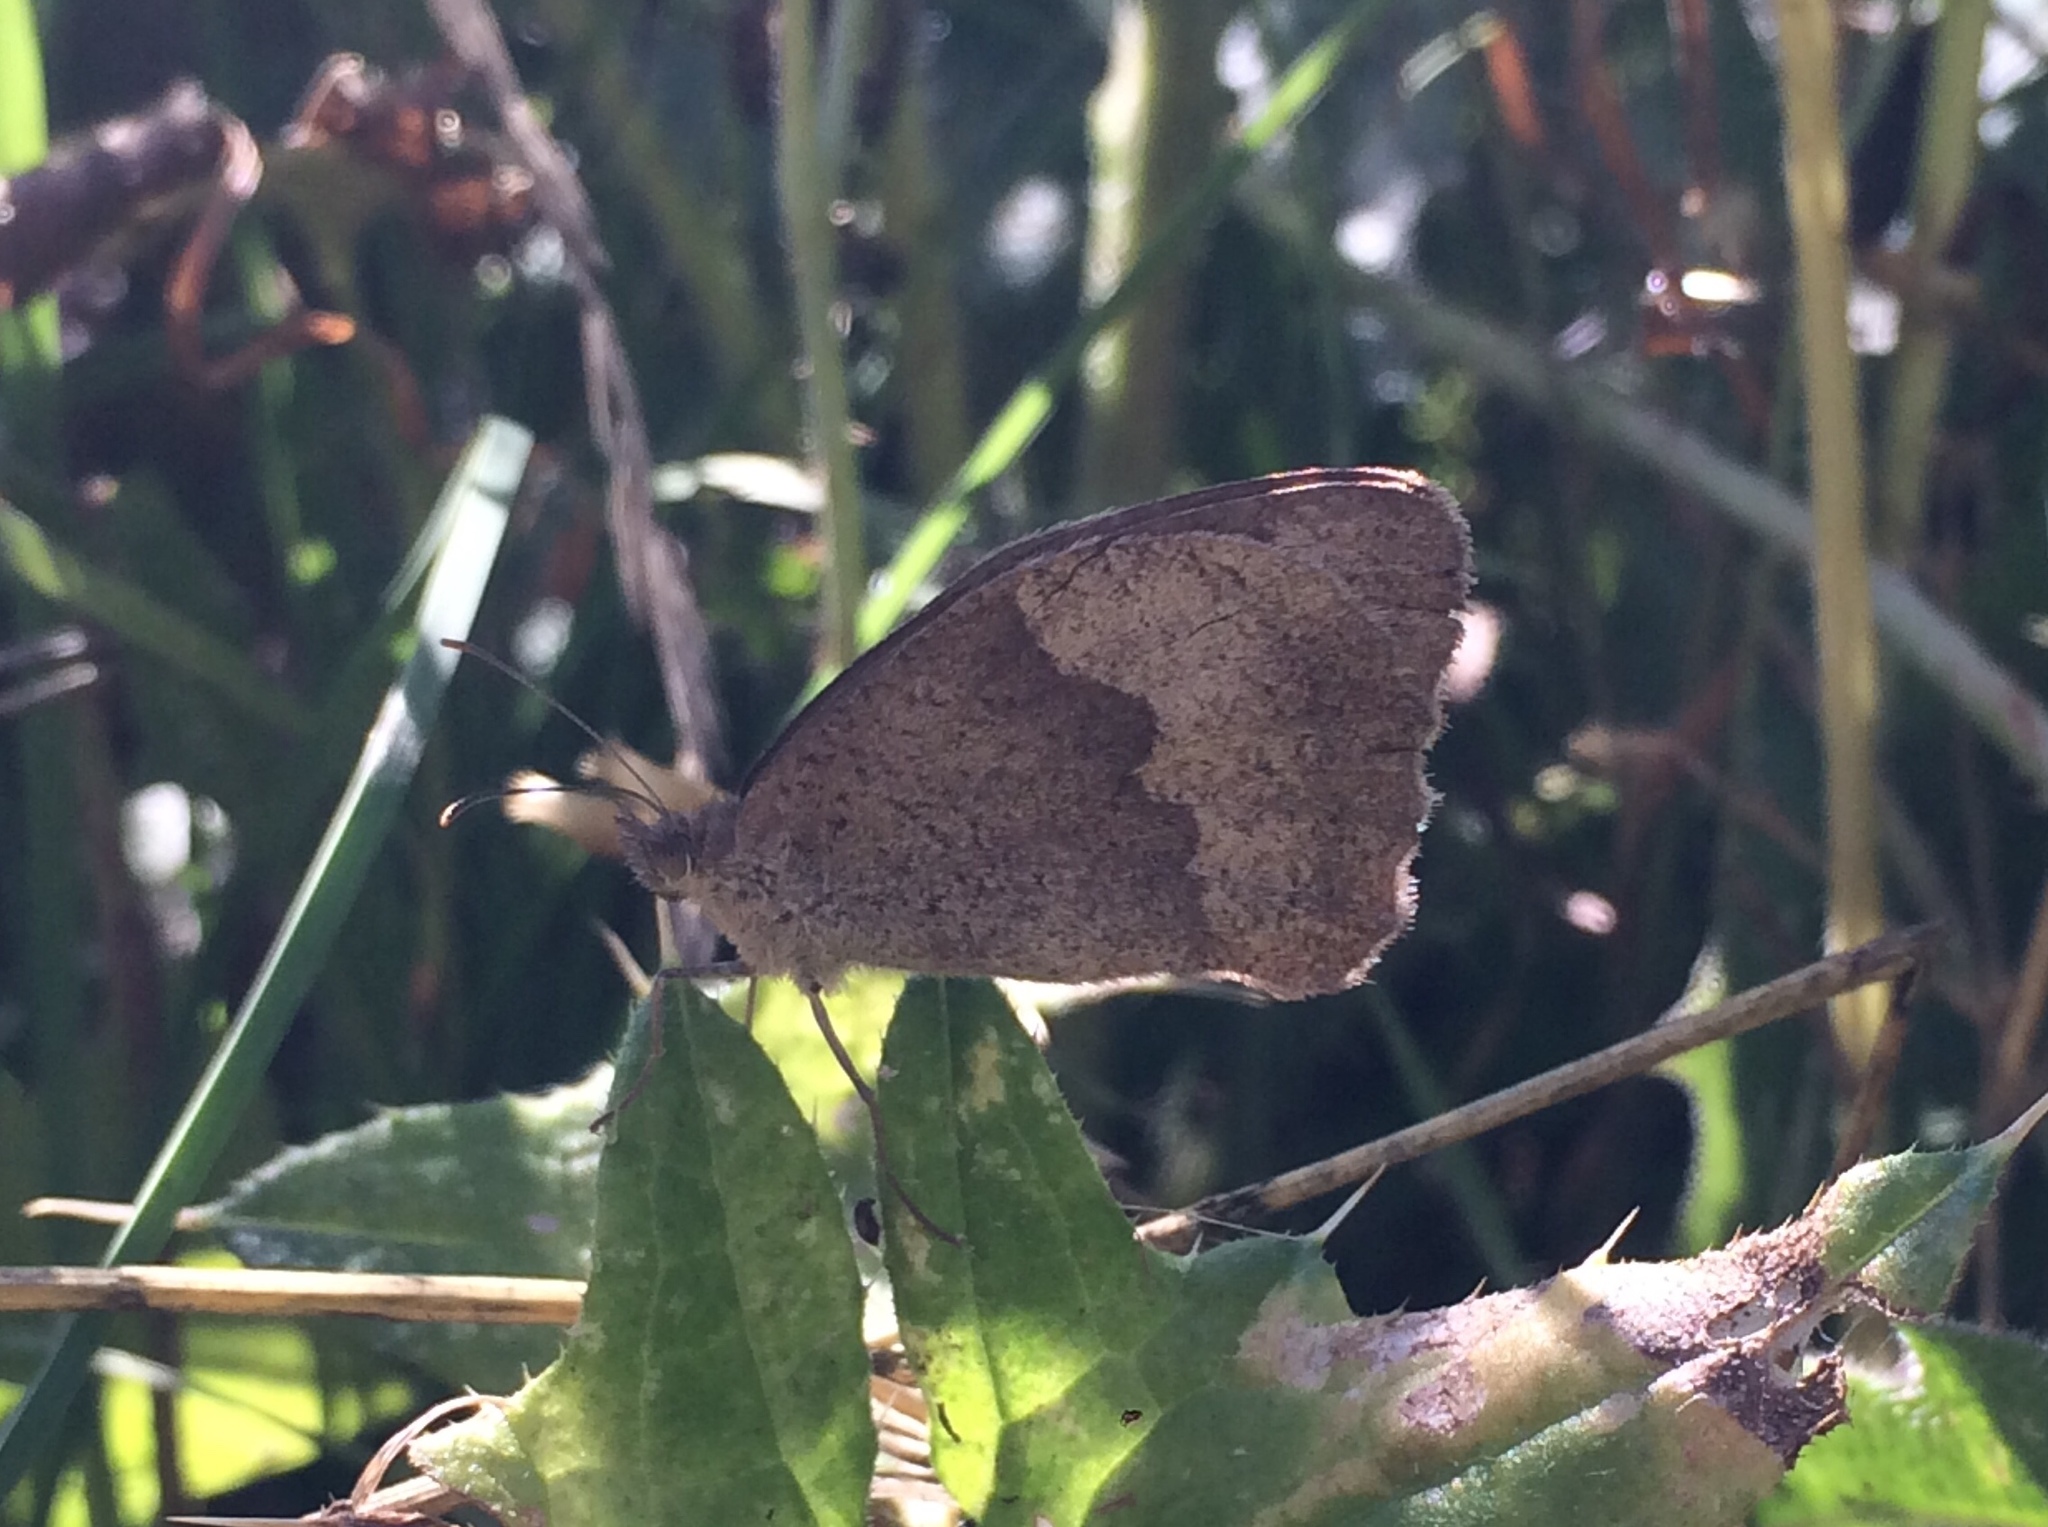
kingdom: Animalia
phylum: Arthropoda
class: Insecta
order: Lepidoptera
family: Nymphalidae
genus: Maniola
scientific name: Maniola jurtina
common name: Meadow brown
